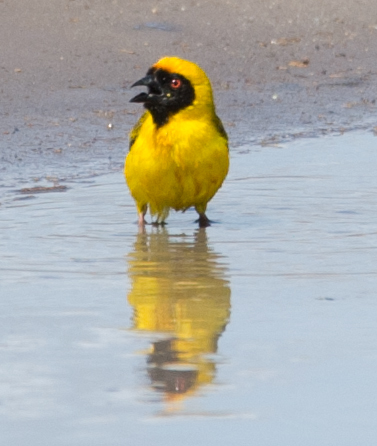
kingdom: Animalia
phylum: Chordata
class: Aves
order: Passeriformes
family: Ploceidae
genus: Ploceus
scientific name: Ploceus velatus
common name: Southern masked weaver
